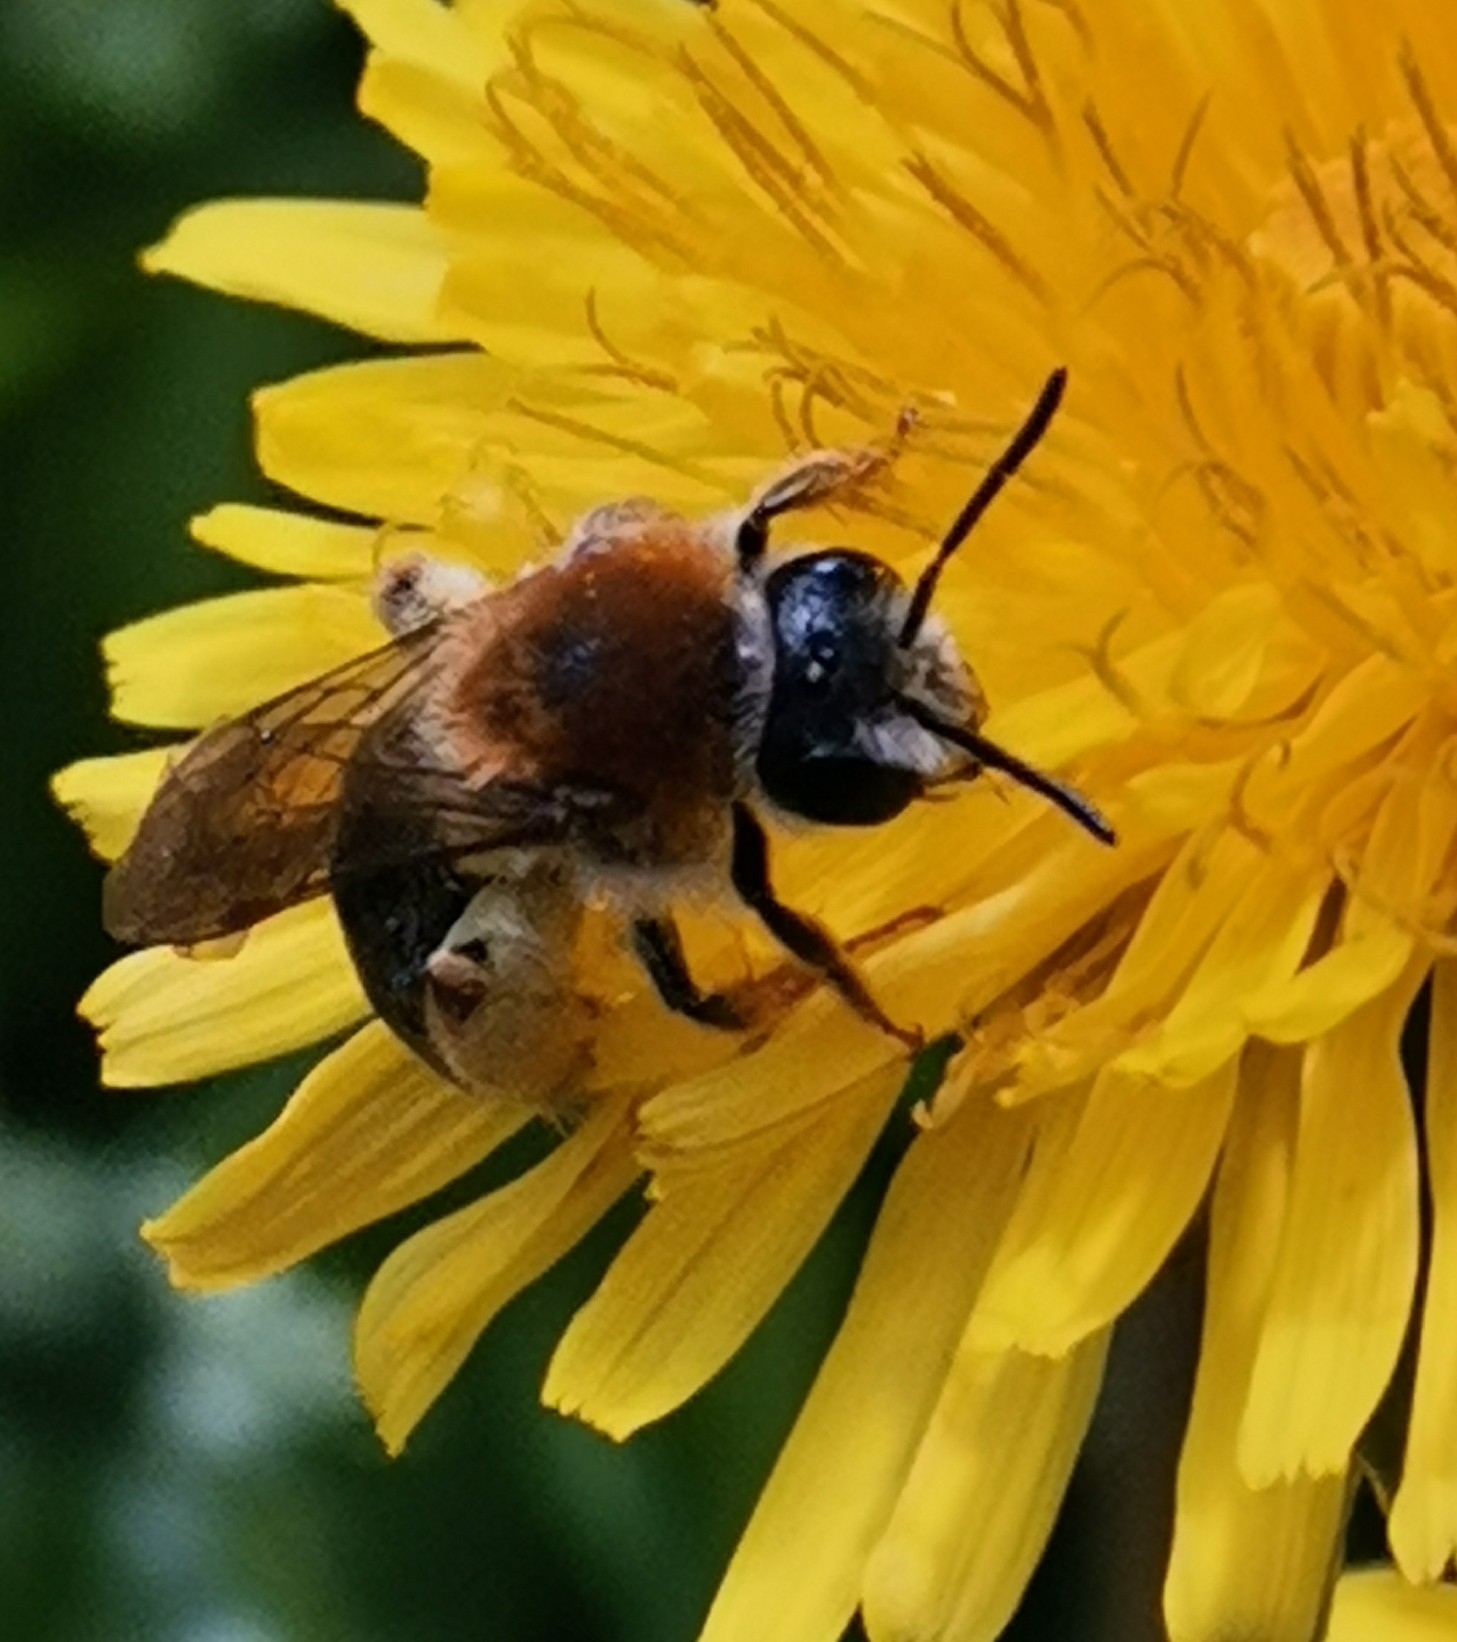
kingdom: Animalia
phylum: Arthropoda
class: Insecta
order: Hymenoptera
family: Andrenidae
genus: Andrena
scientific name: Andrena haemorrhoa
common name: Early mining bee
